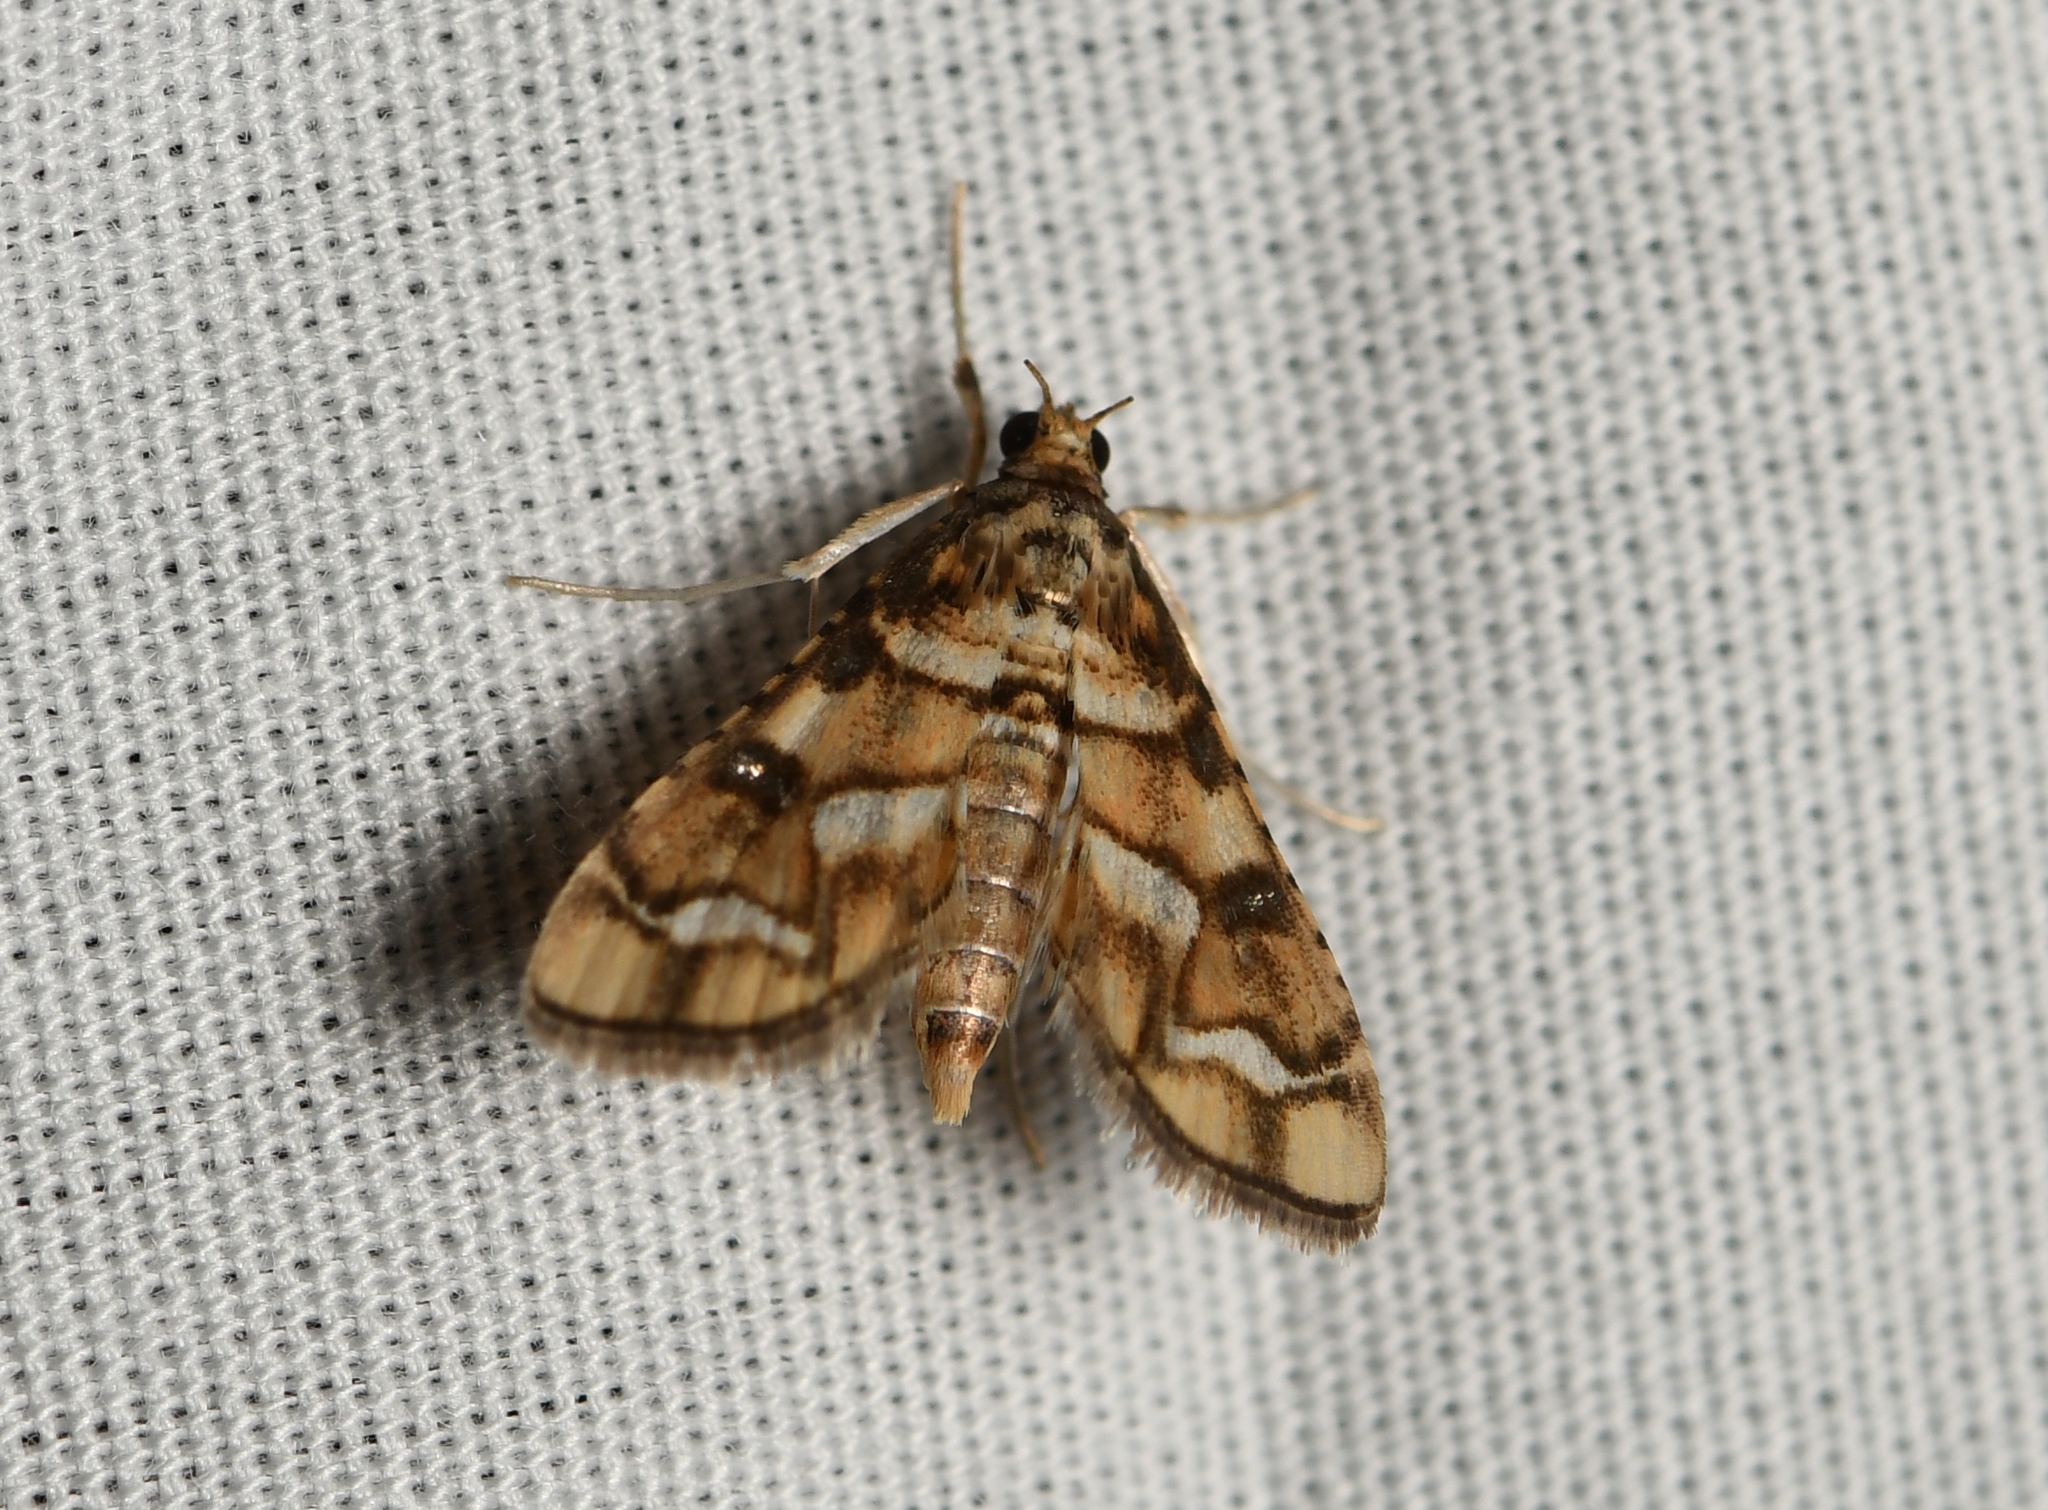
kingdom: Animalia
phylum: Arthropoda
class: Insecta
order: Lepidoptera
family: Crambidae
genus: Hileithia
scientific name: Hileithia magualis
